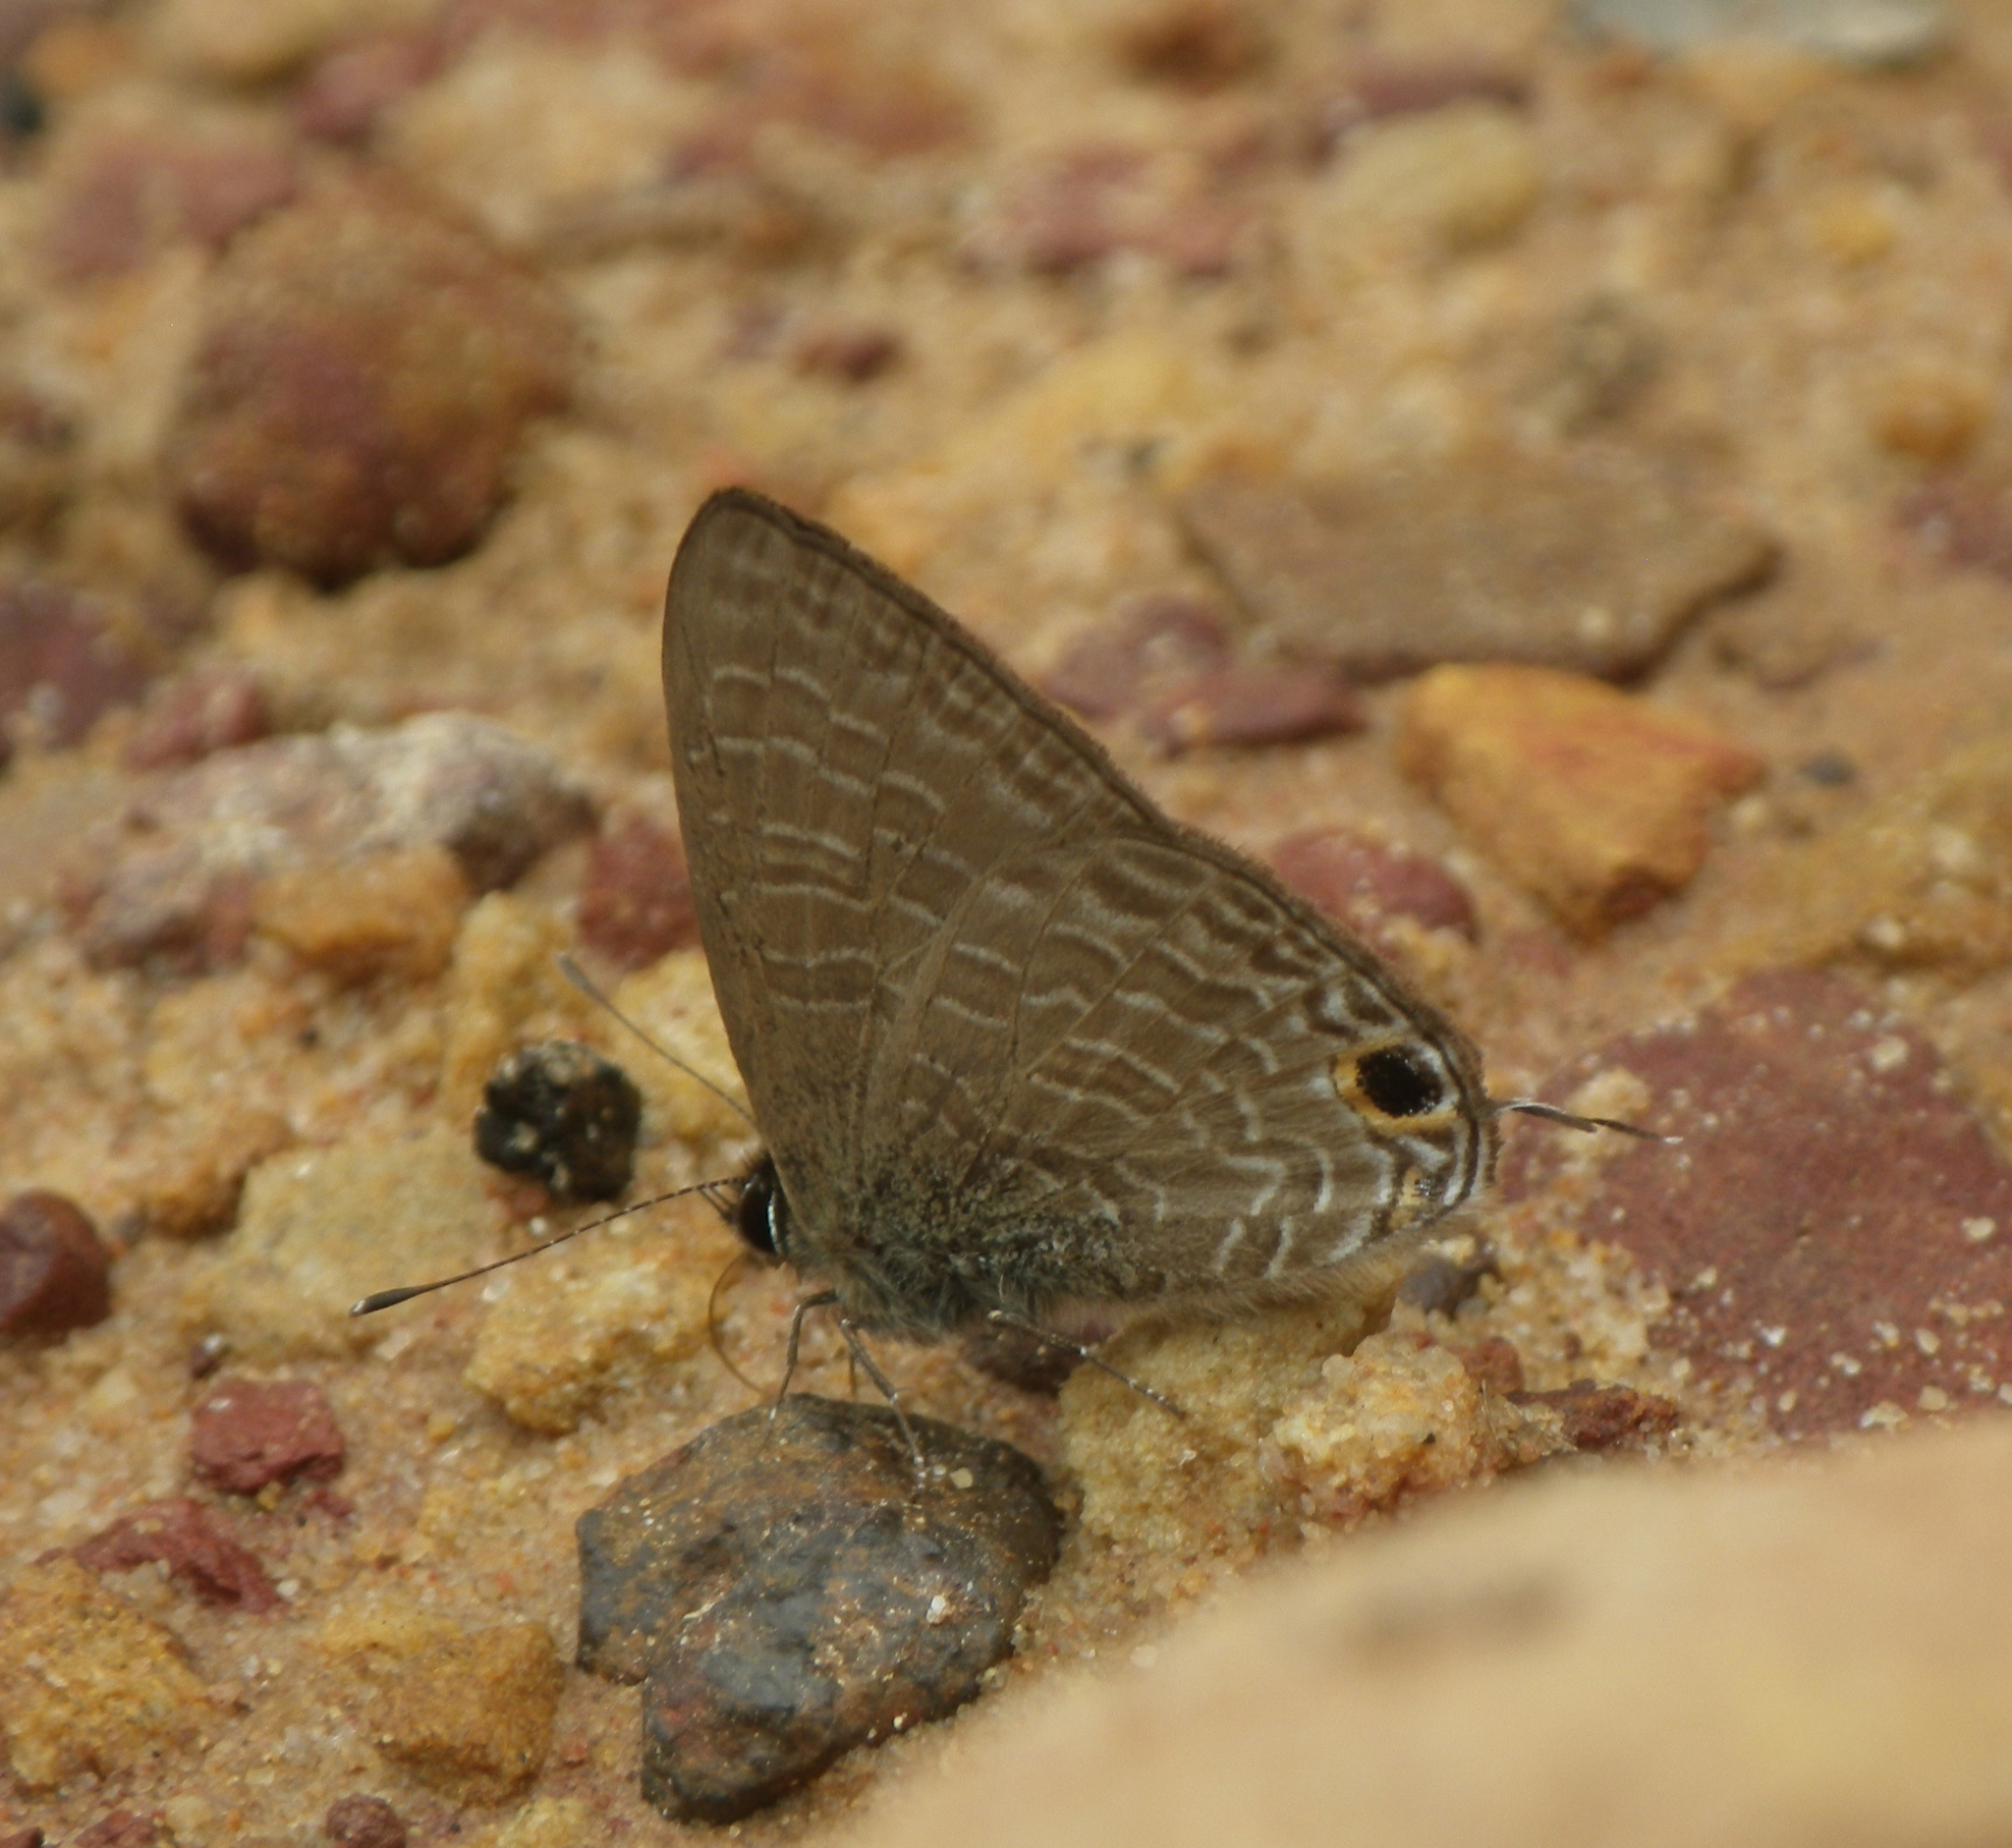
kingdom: Animalia
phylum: Arthropoda
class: Insecta
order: Lepidoptera
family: Lycaenidae
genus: Ionolyce
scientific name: Ionolyce helicon
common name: Pointed line blue
